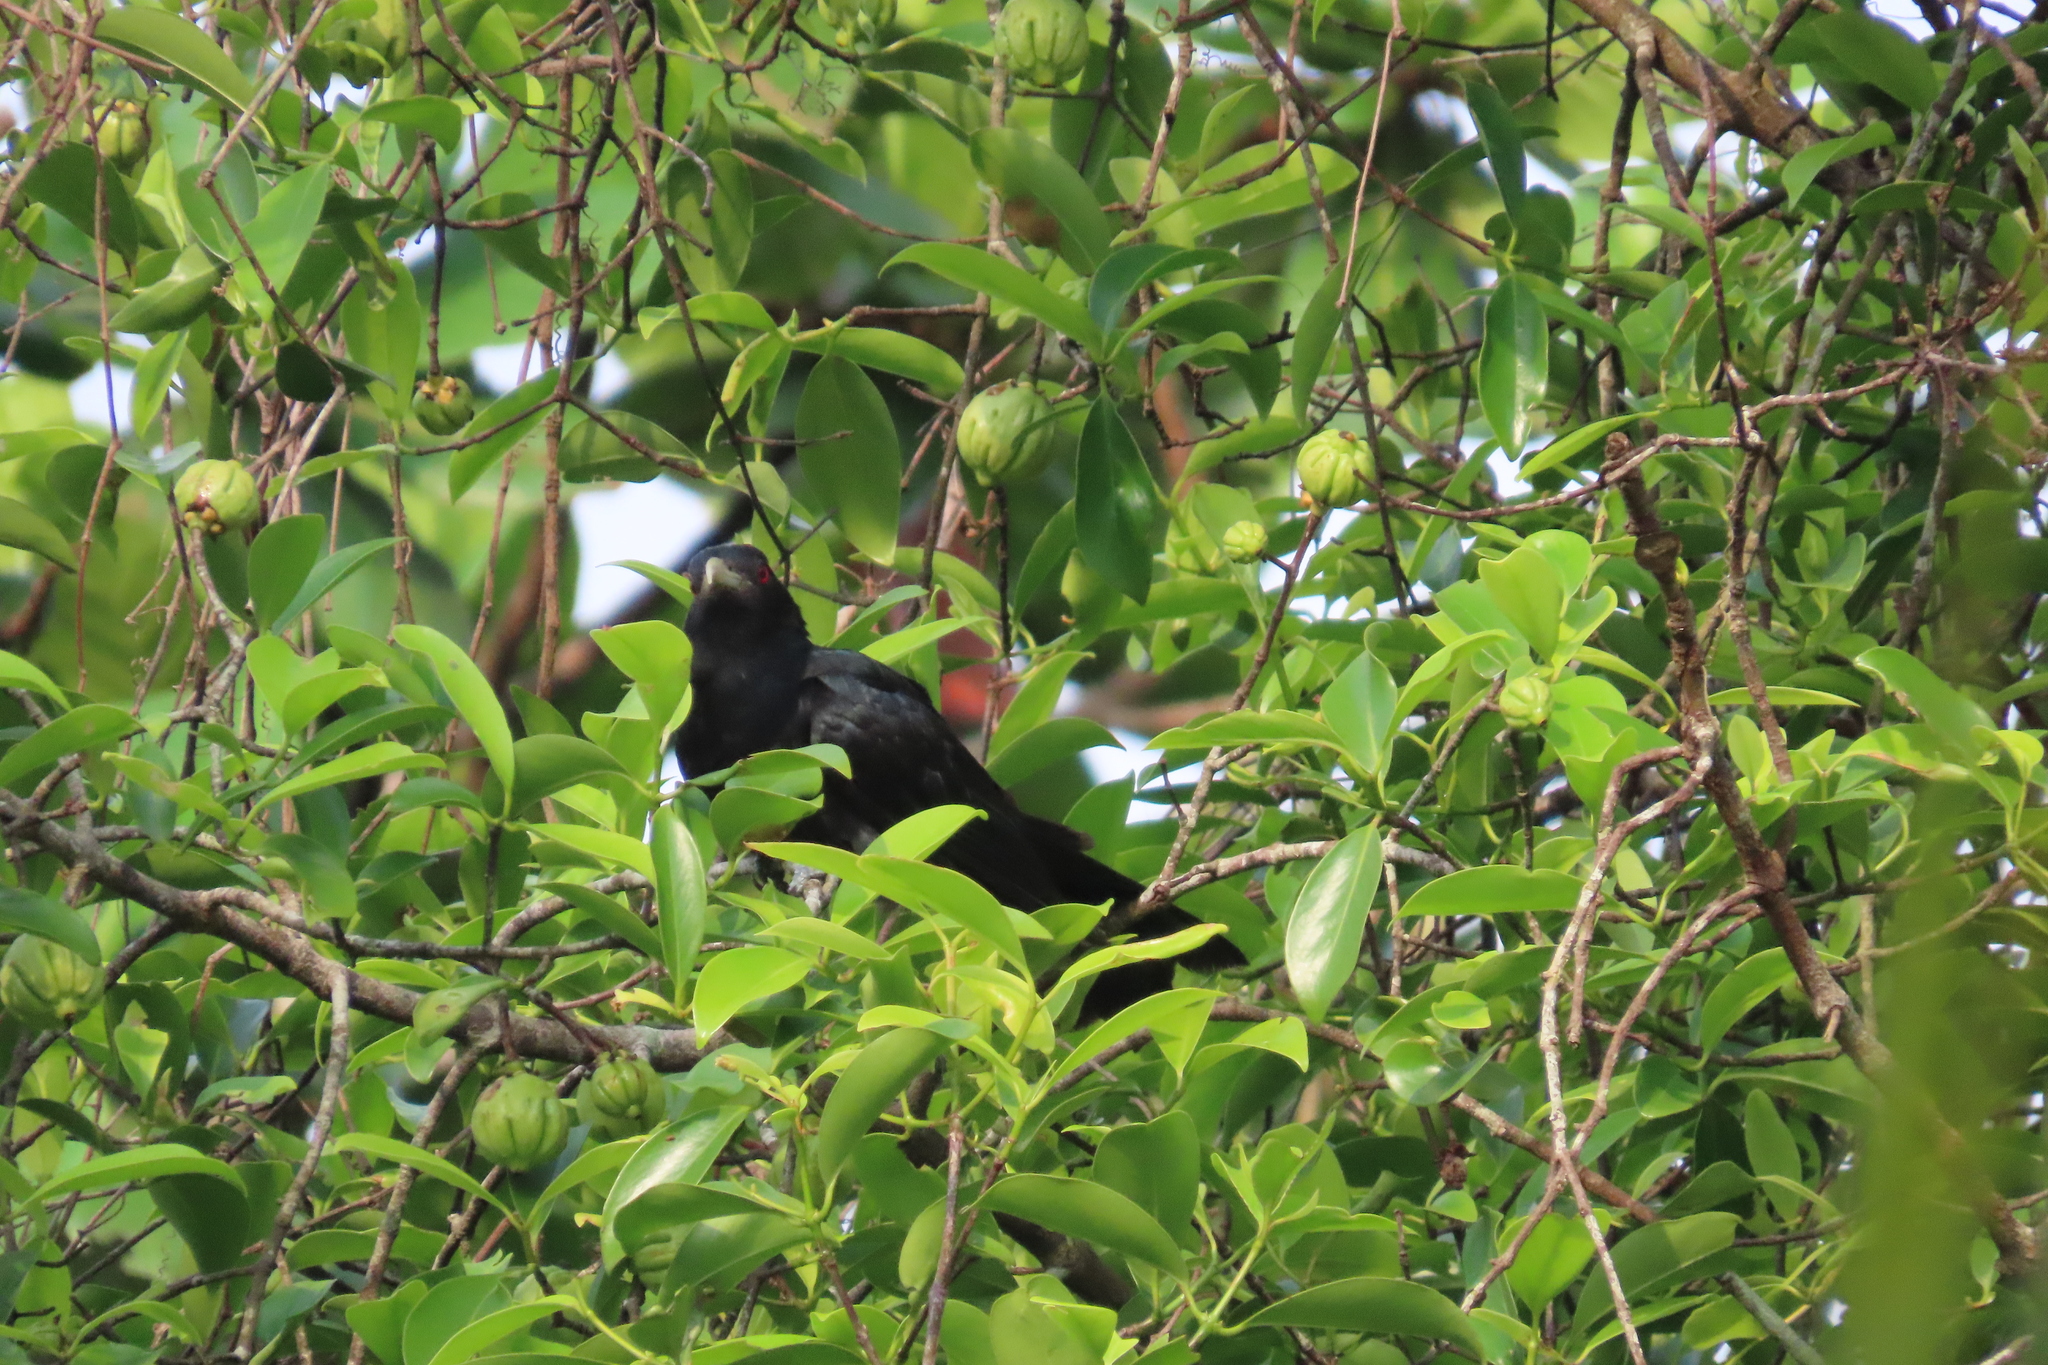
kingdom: Animalia
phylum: Chordata
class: Aves
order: Cuculiformes
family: Cuculidae
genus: Eudynamys
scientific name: Eudynamys scolopaceus
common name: Asian koel
